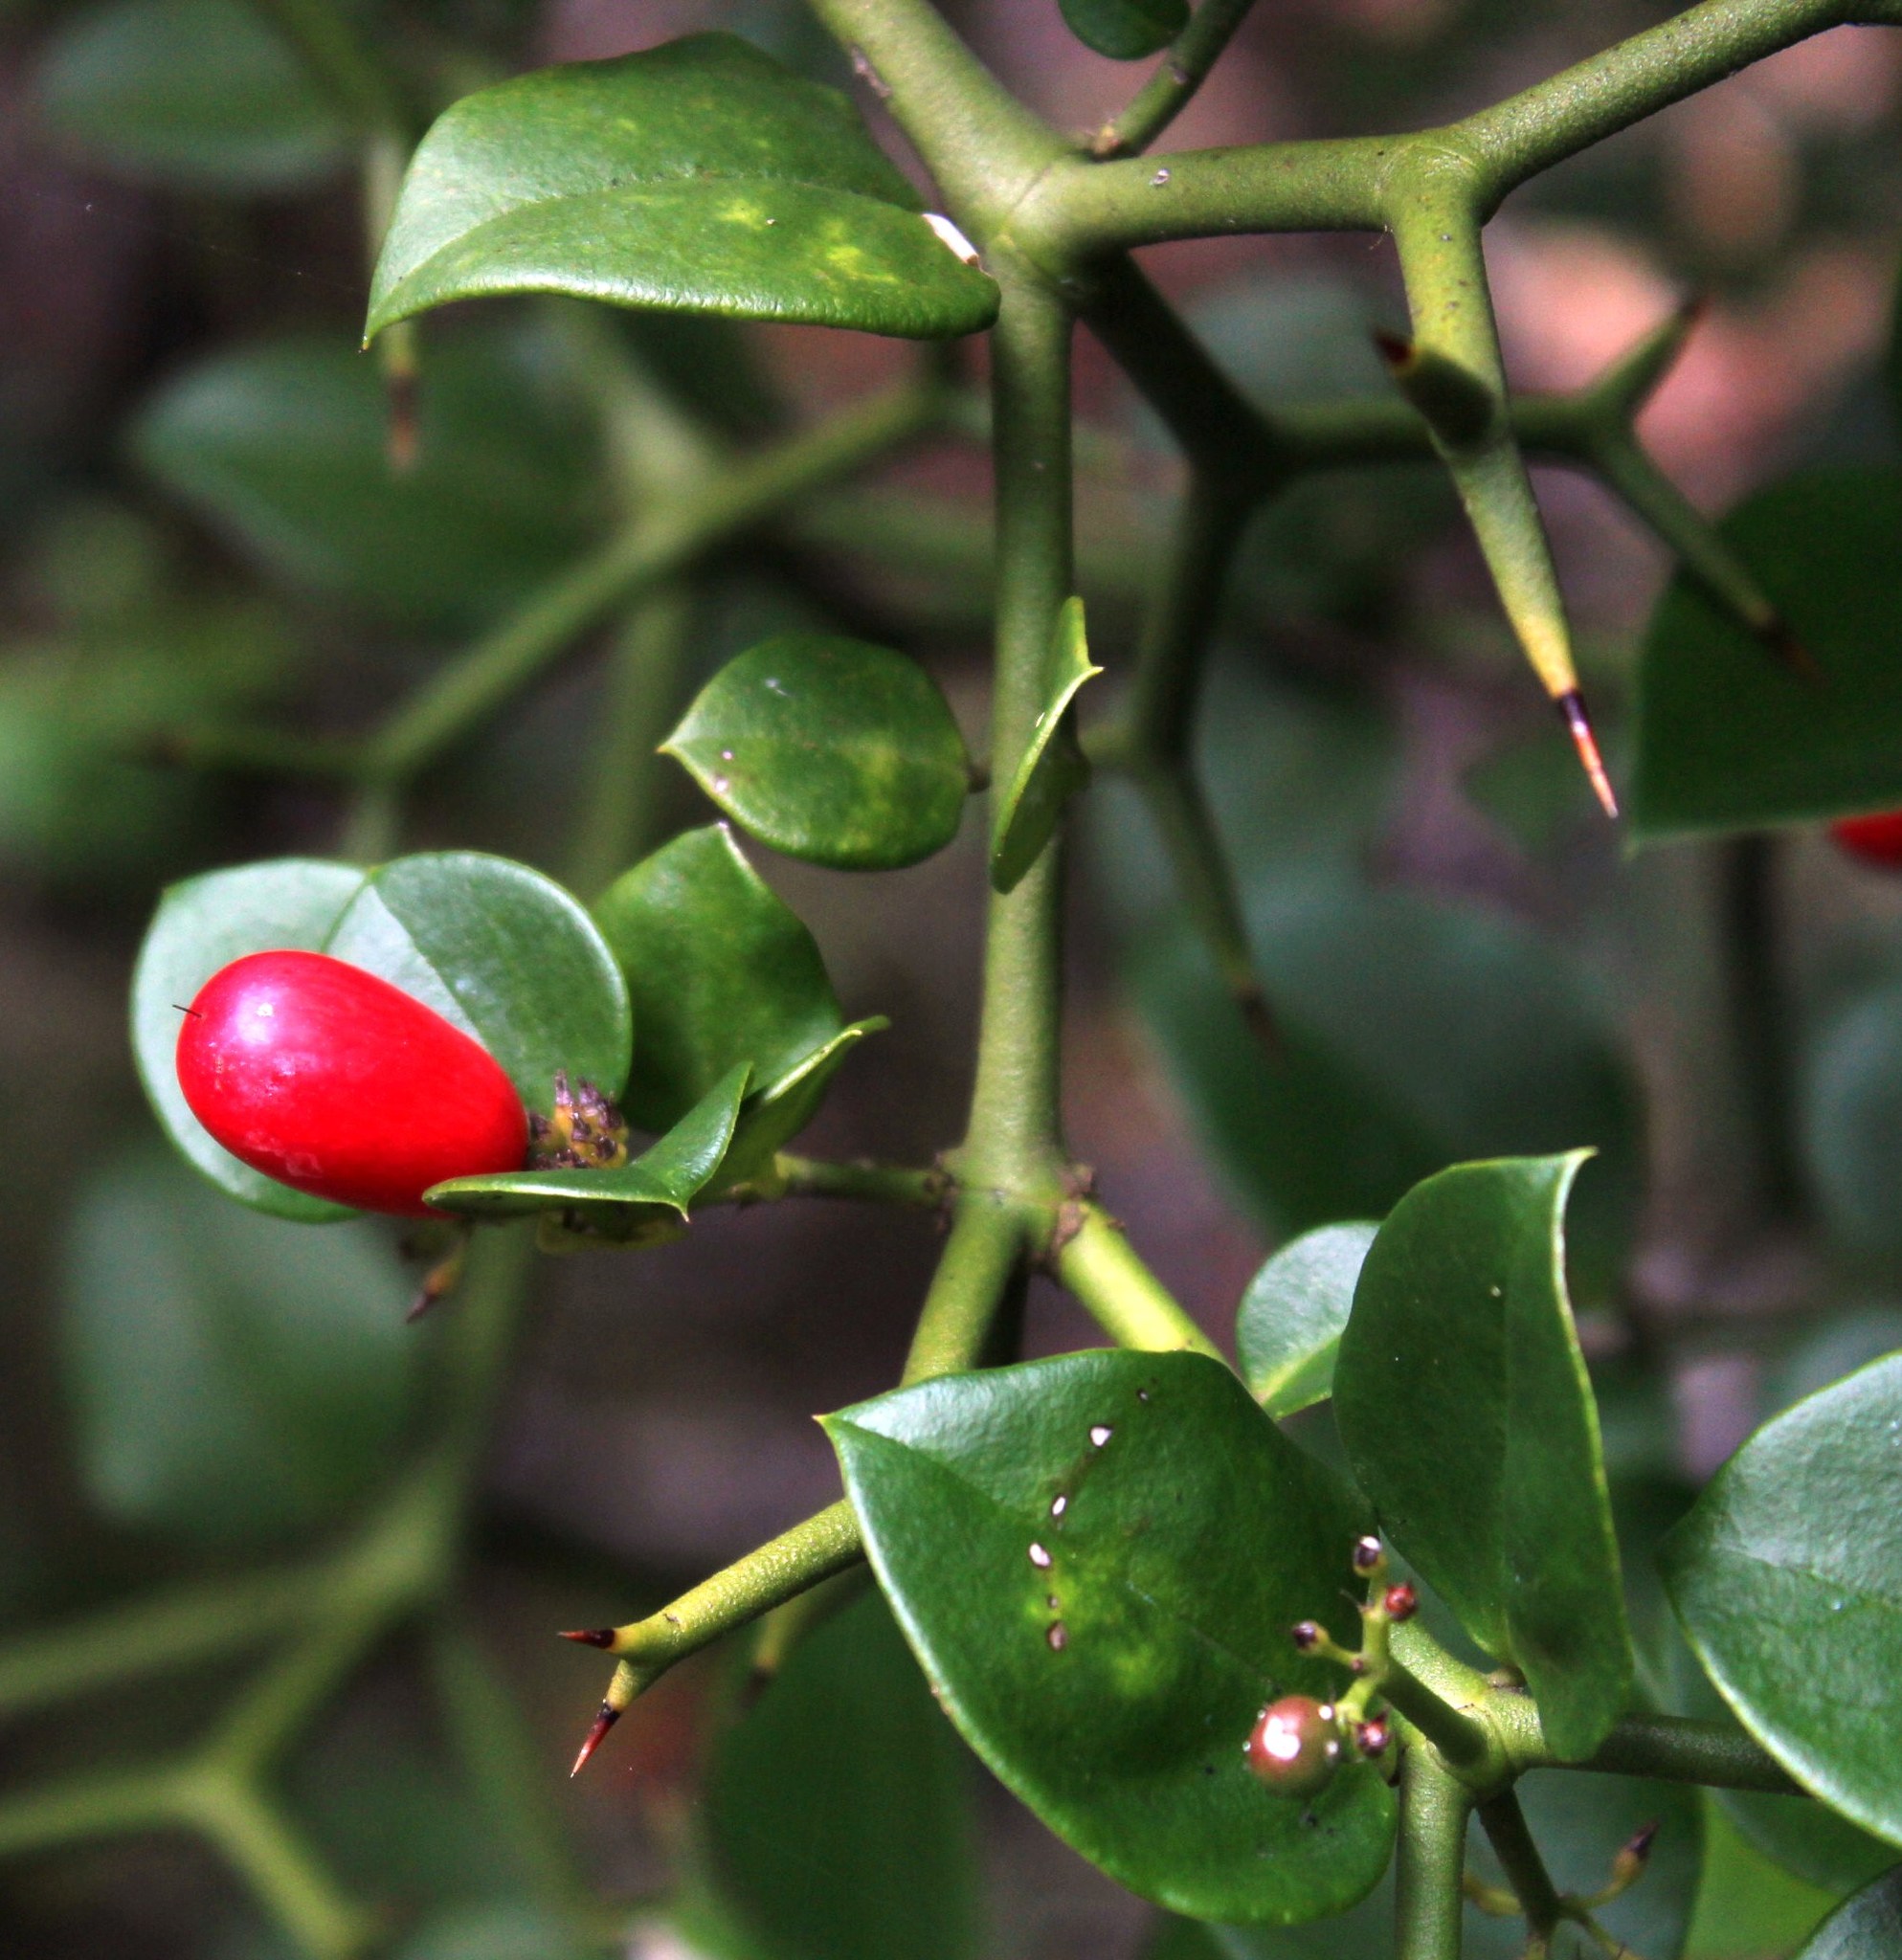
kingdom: Plantae
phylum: Tracheophyta
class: Magnoliopsida
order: Gentianales
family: Apocynaceae
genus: Carissa
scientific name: Carissa bispinosa
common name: Forest num-num
